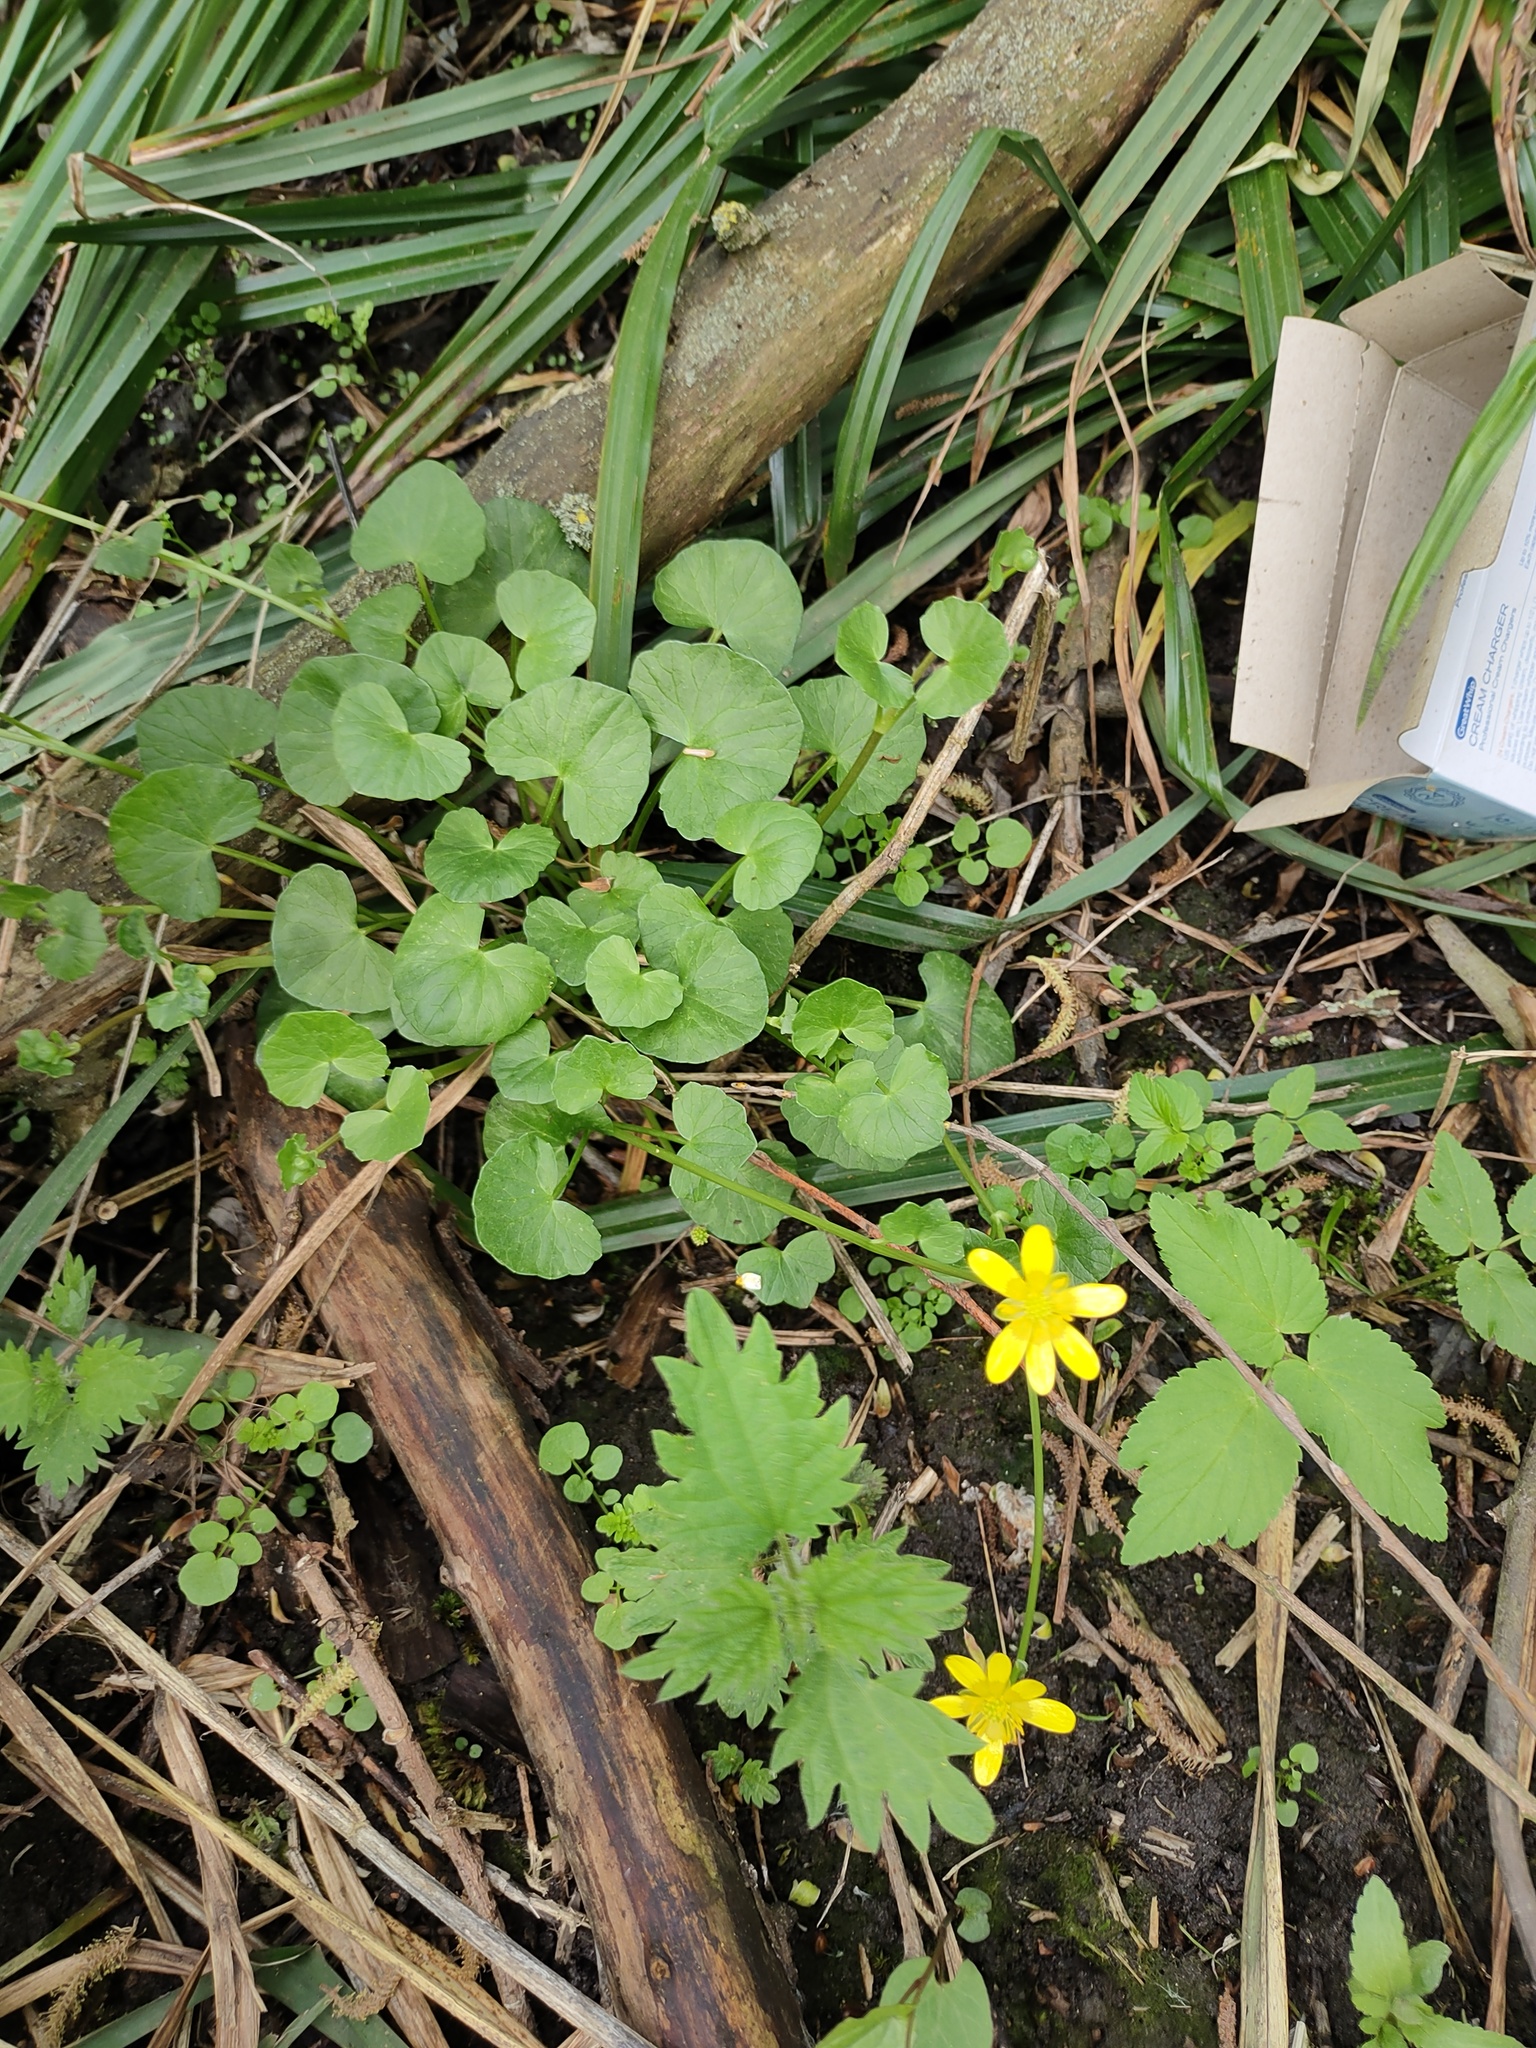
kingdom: Plantae
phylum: Tracheophyta
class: Magnoliopsida
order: Ranunculales
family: Ranunculaceae
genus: Ficaria
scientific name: Ficaria verna
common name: Lesser celandine
